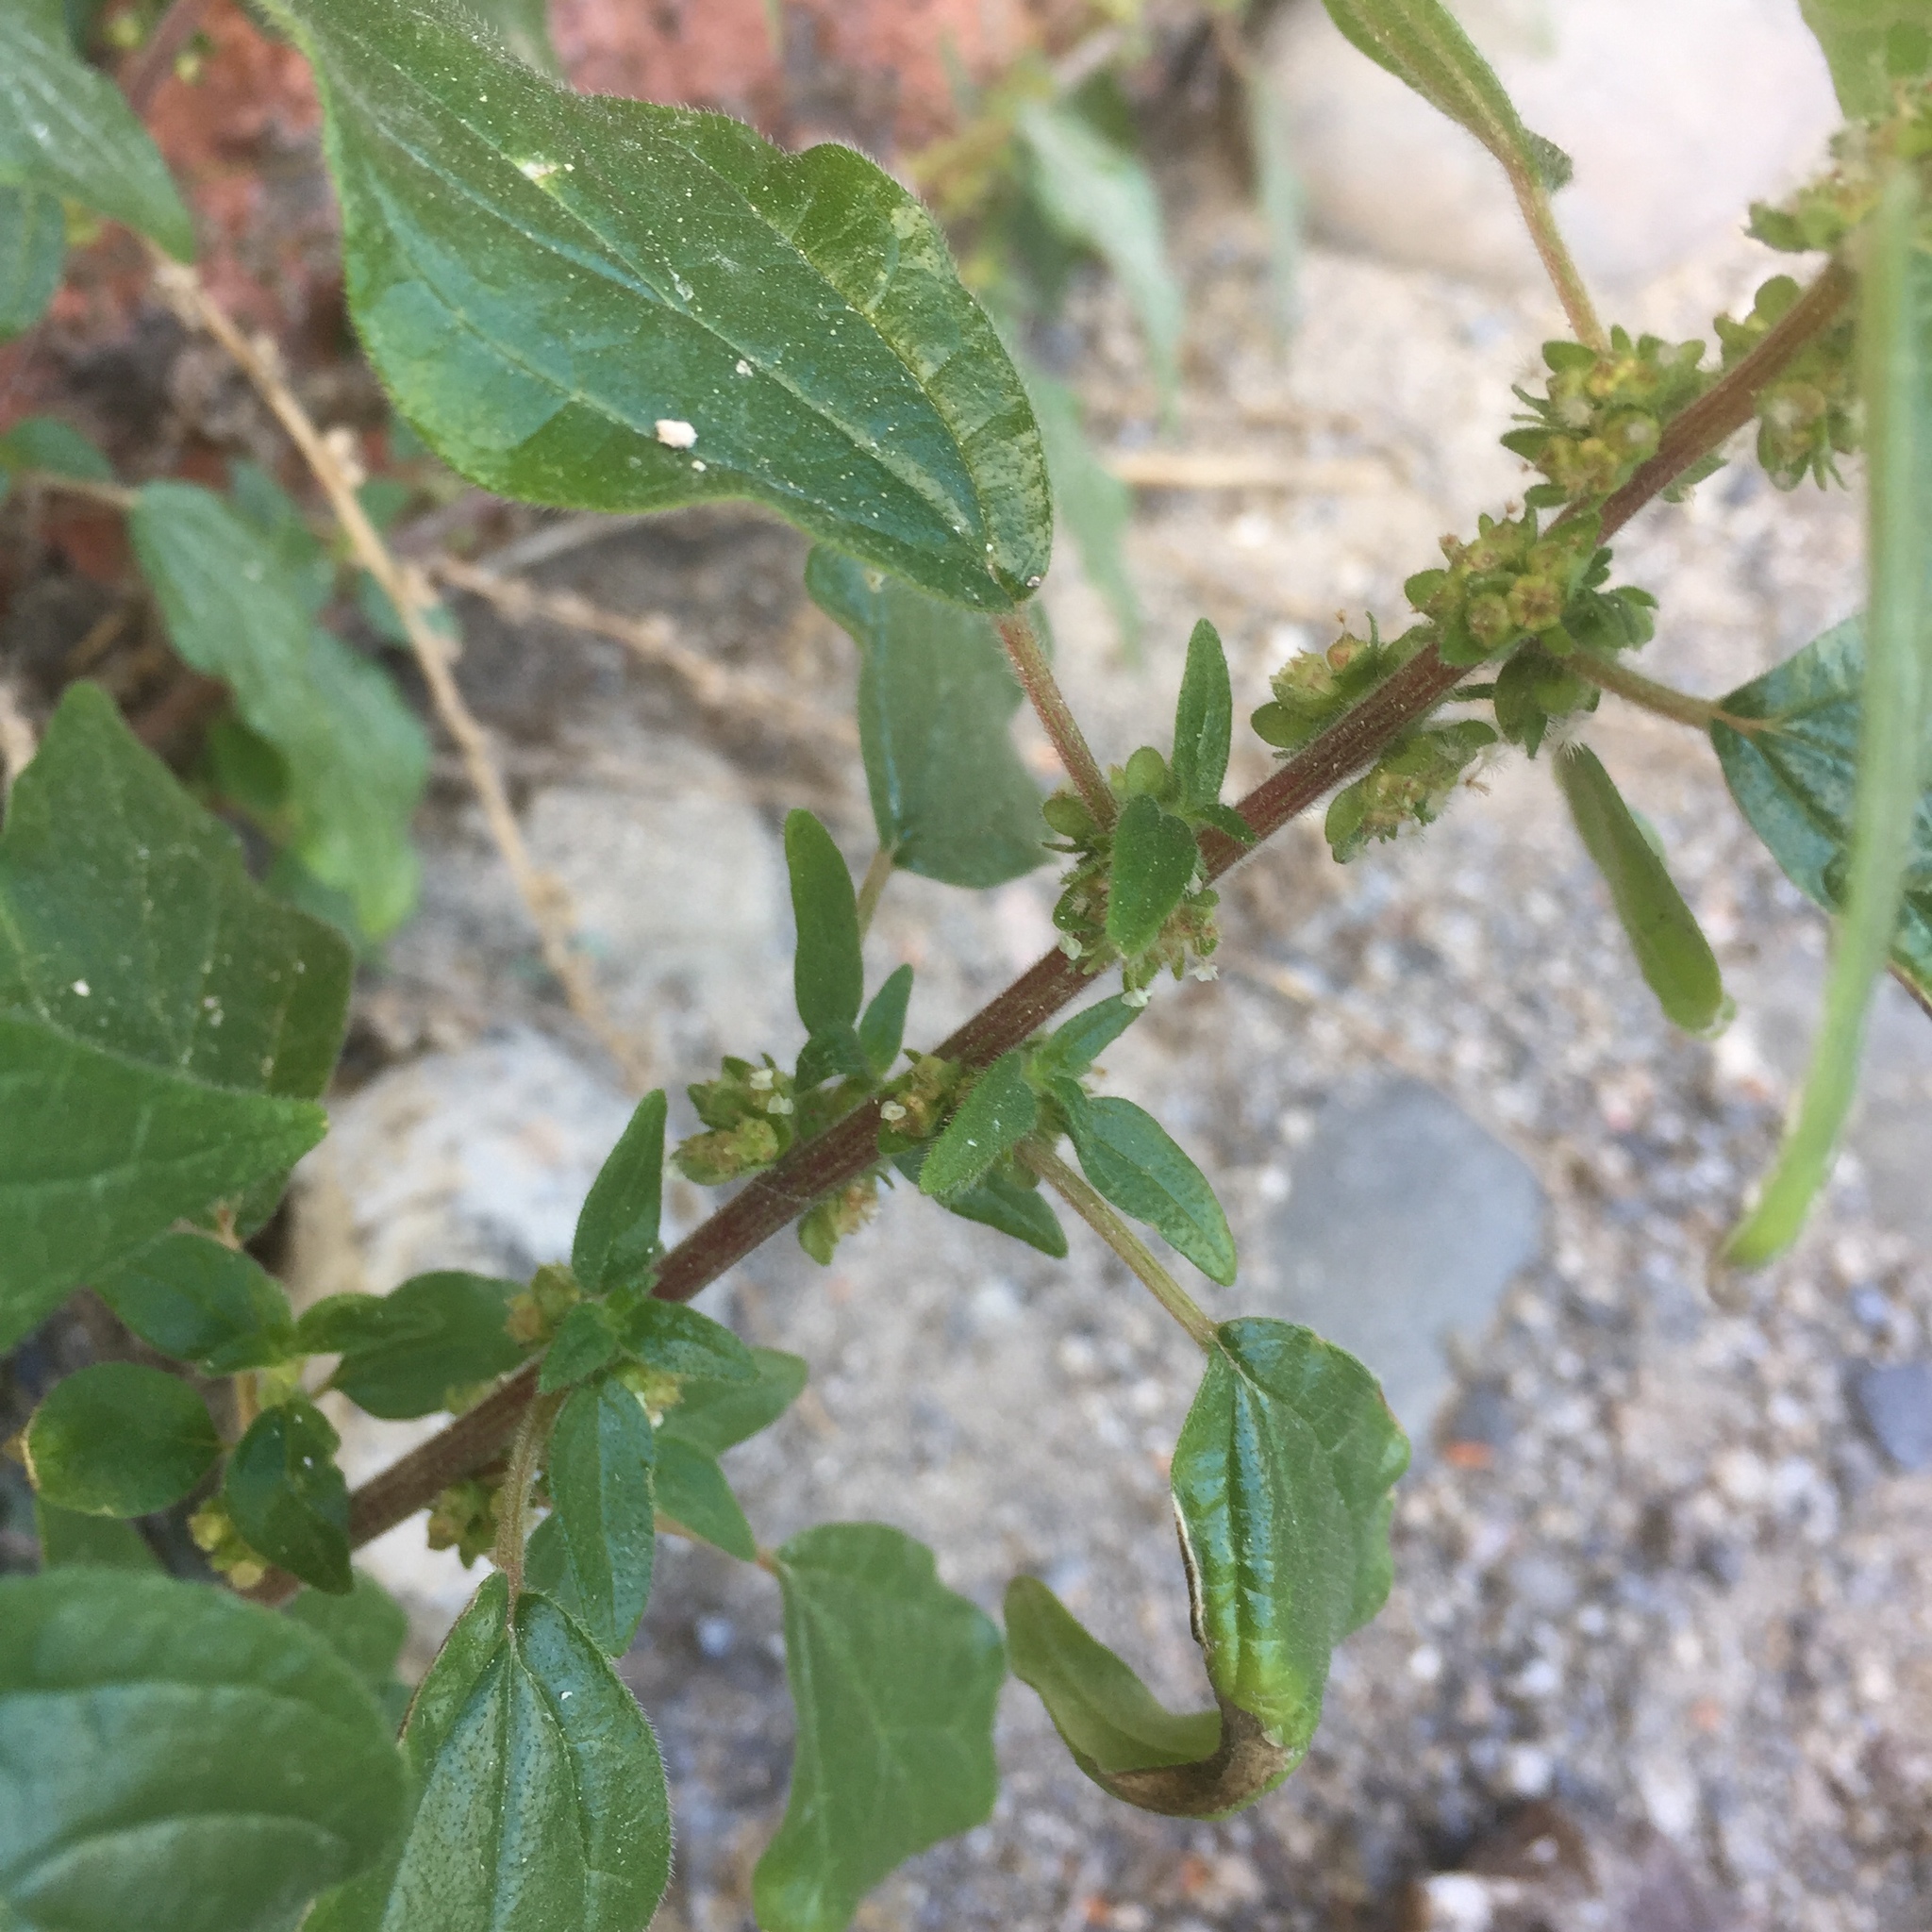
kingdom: Plantae
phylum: Tracheophyta
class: Magnoliopsida
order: Rosales
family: Urticaceae
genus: Parietaria
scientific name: Parietaria judaica
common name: Pellitory-of-the-wall
